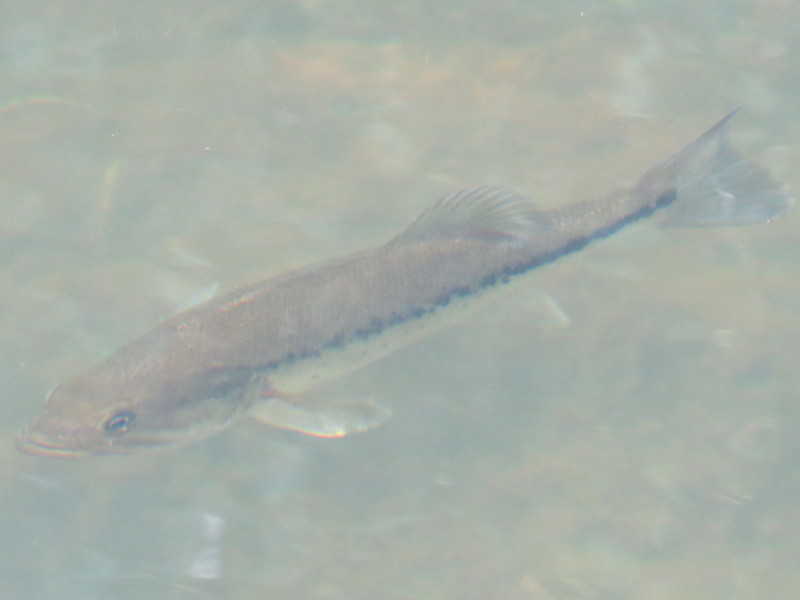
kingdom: Animalia
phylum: Chordata
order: Perciformes
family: Centrarchidae
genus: Micropterus
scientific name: Micropterus
